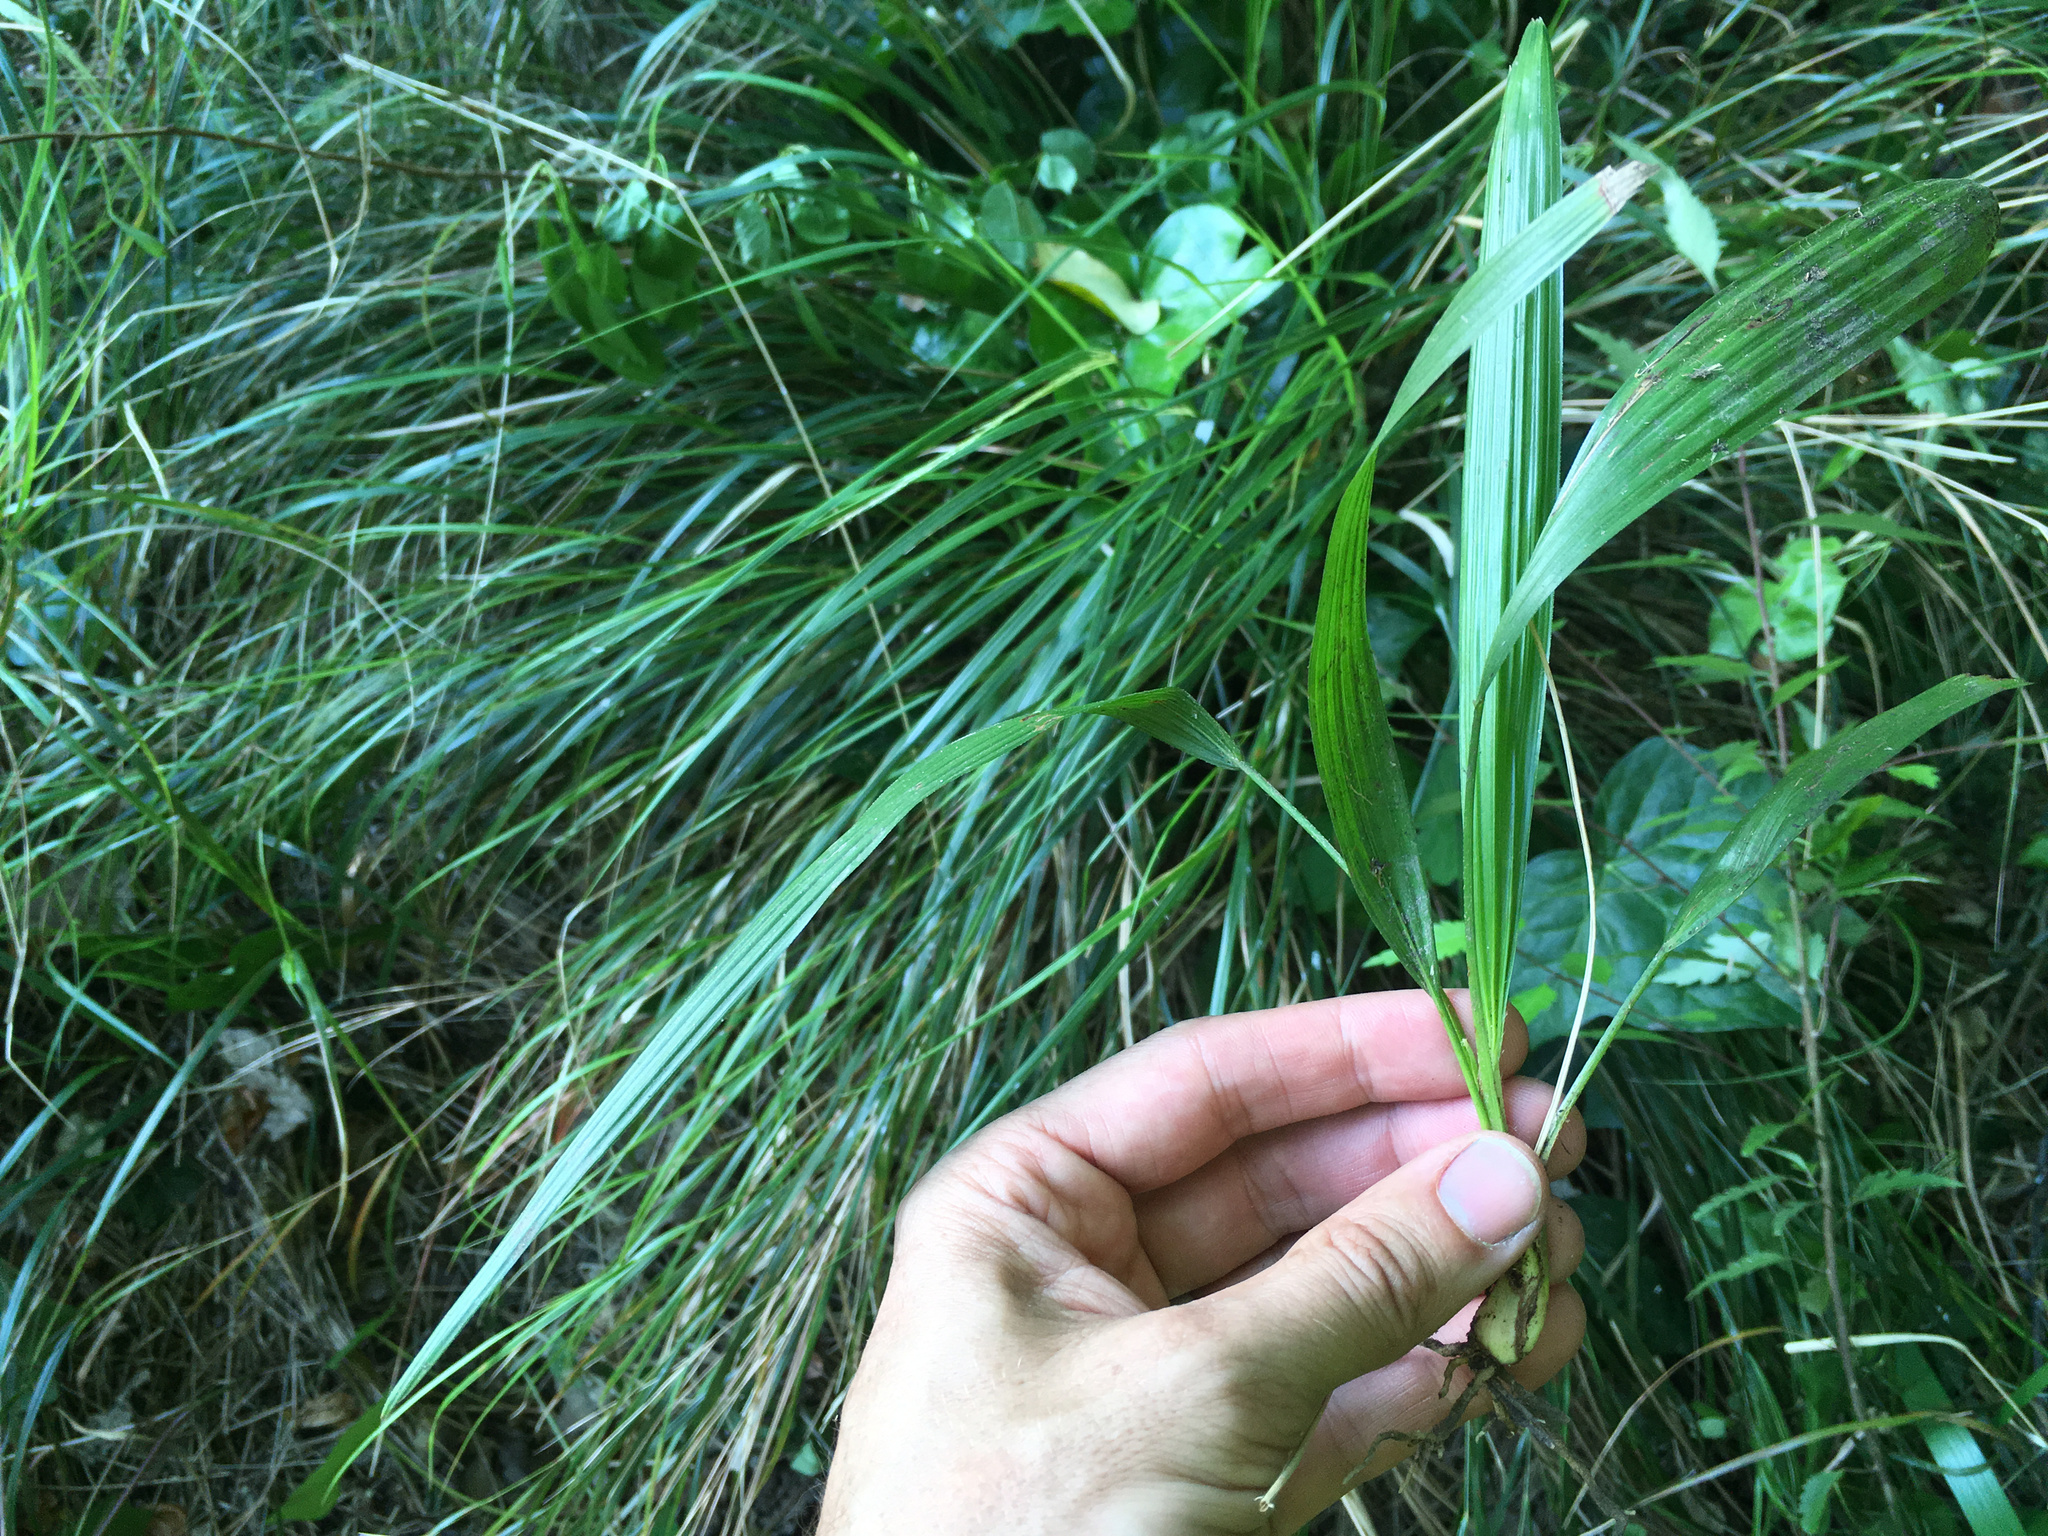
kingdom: Plantae
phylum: Tracheophyta
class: Liliopsida
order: Arecales
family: Arecaceae
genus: Trachycarpus
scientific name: Trachycarpus fortunei
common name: Chusan palm
